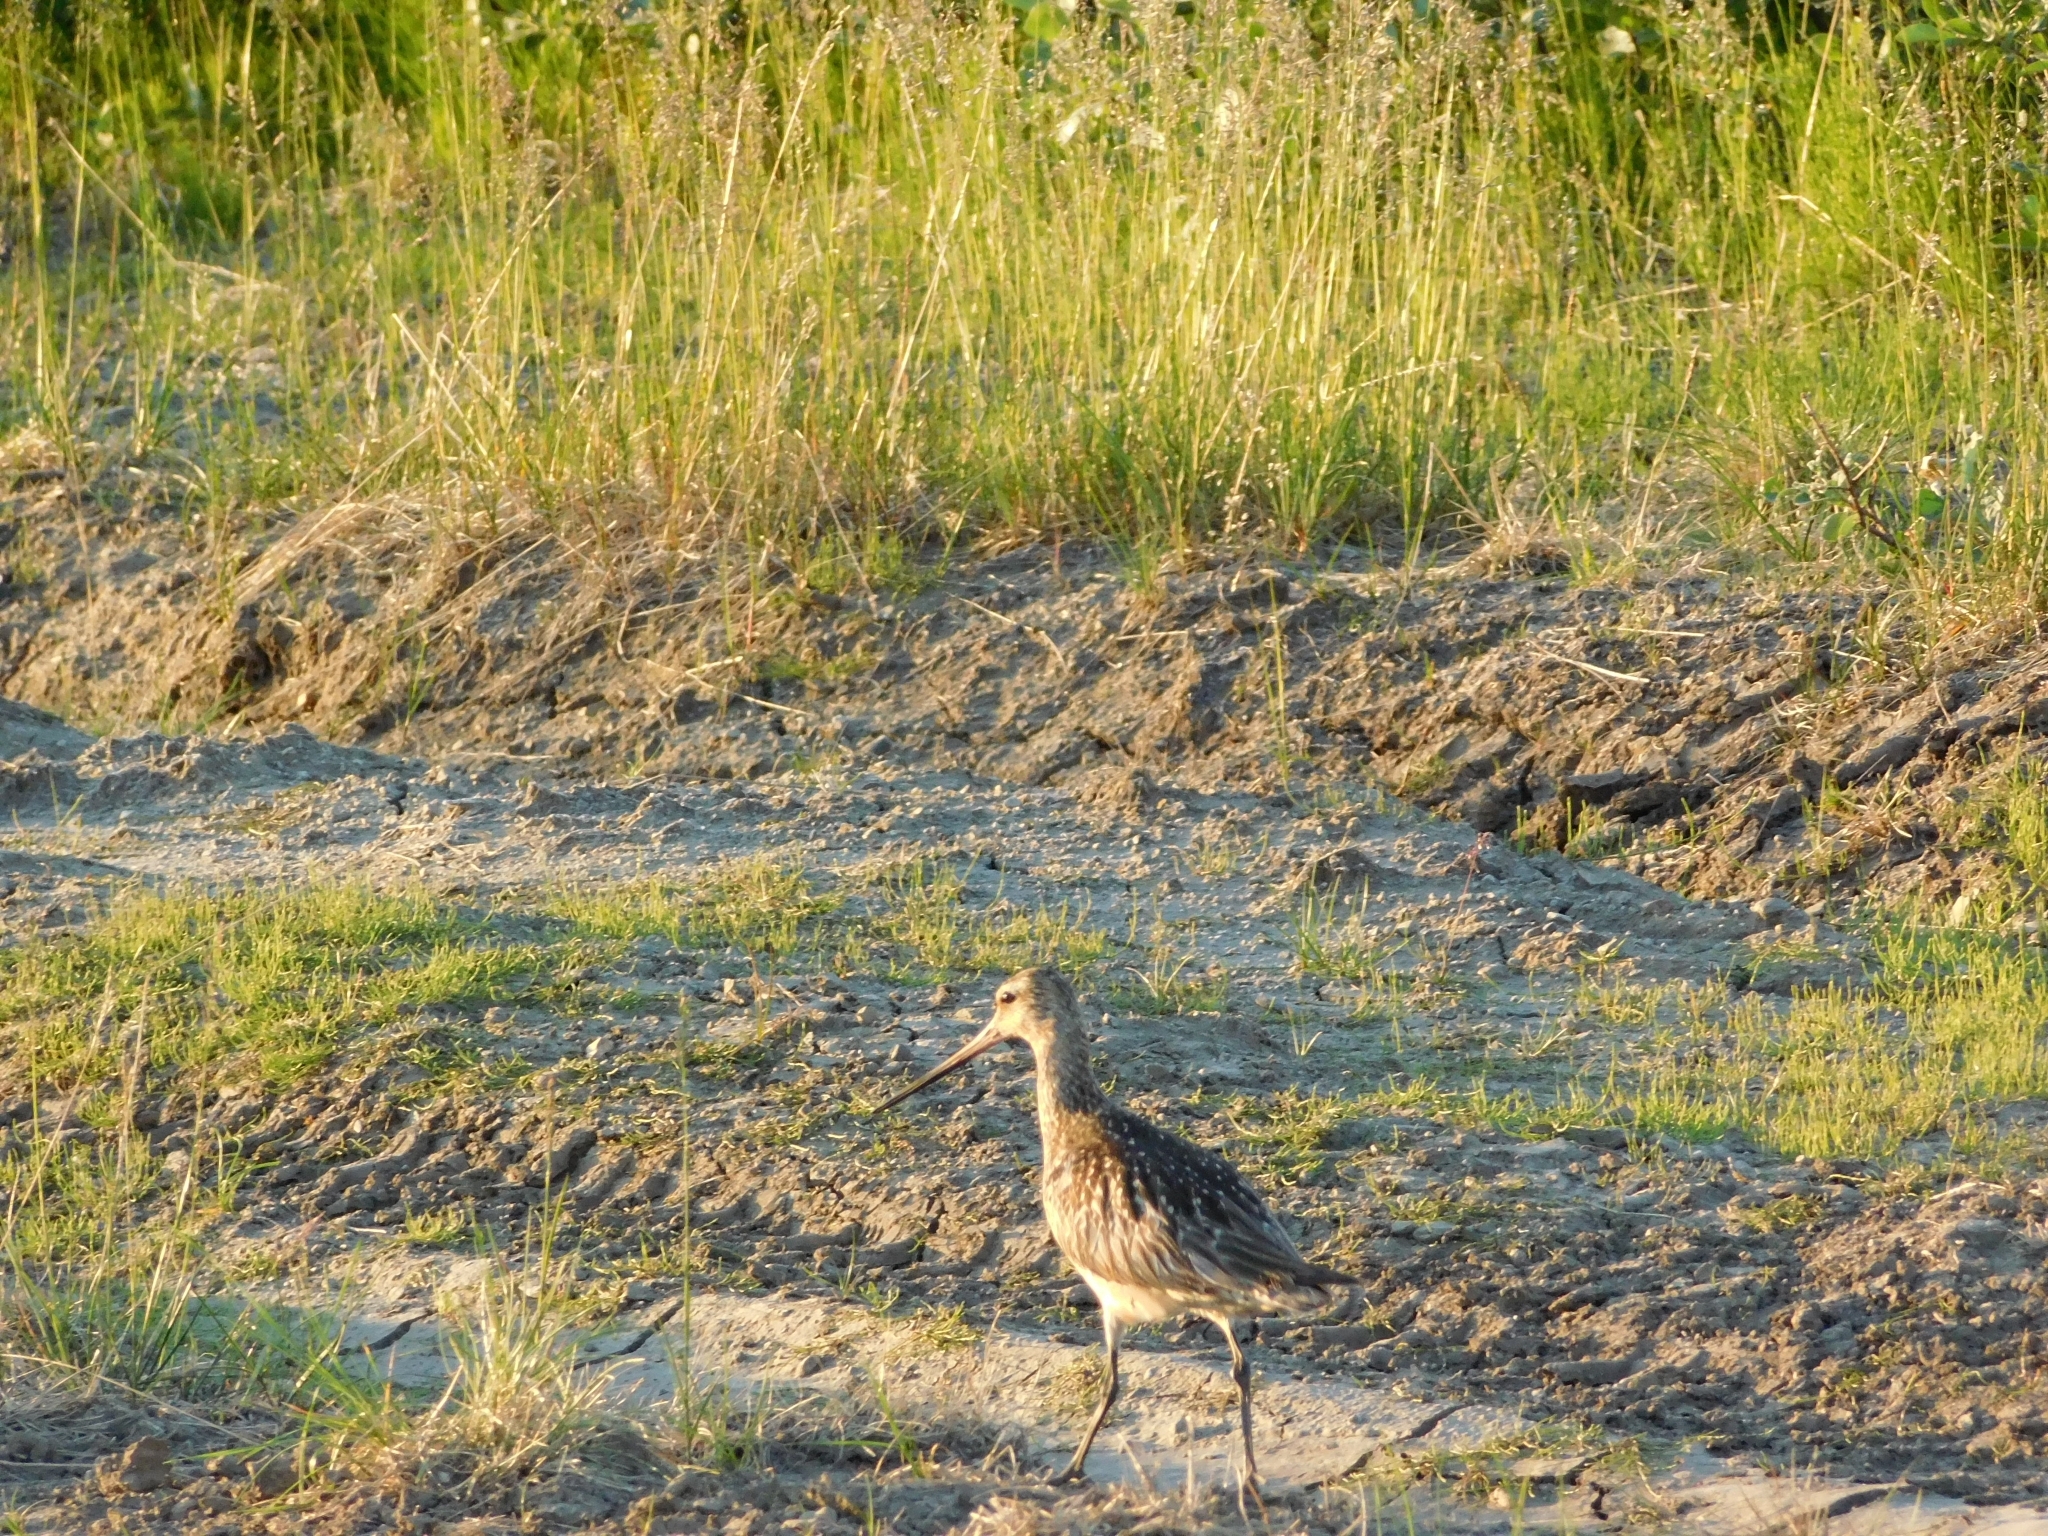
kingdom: Animalia
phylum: Chordata
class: Aves
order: Charadriiformes
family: Scolopacidae
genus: Limosa
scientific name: Limosa lapponica
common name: Bar-tailed godwit
